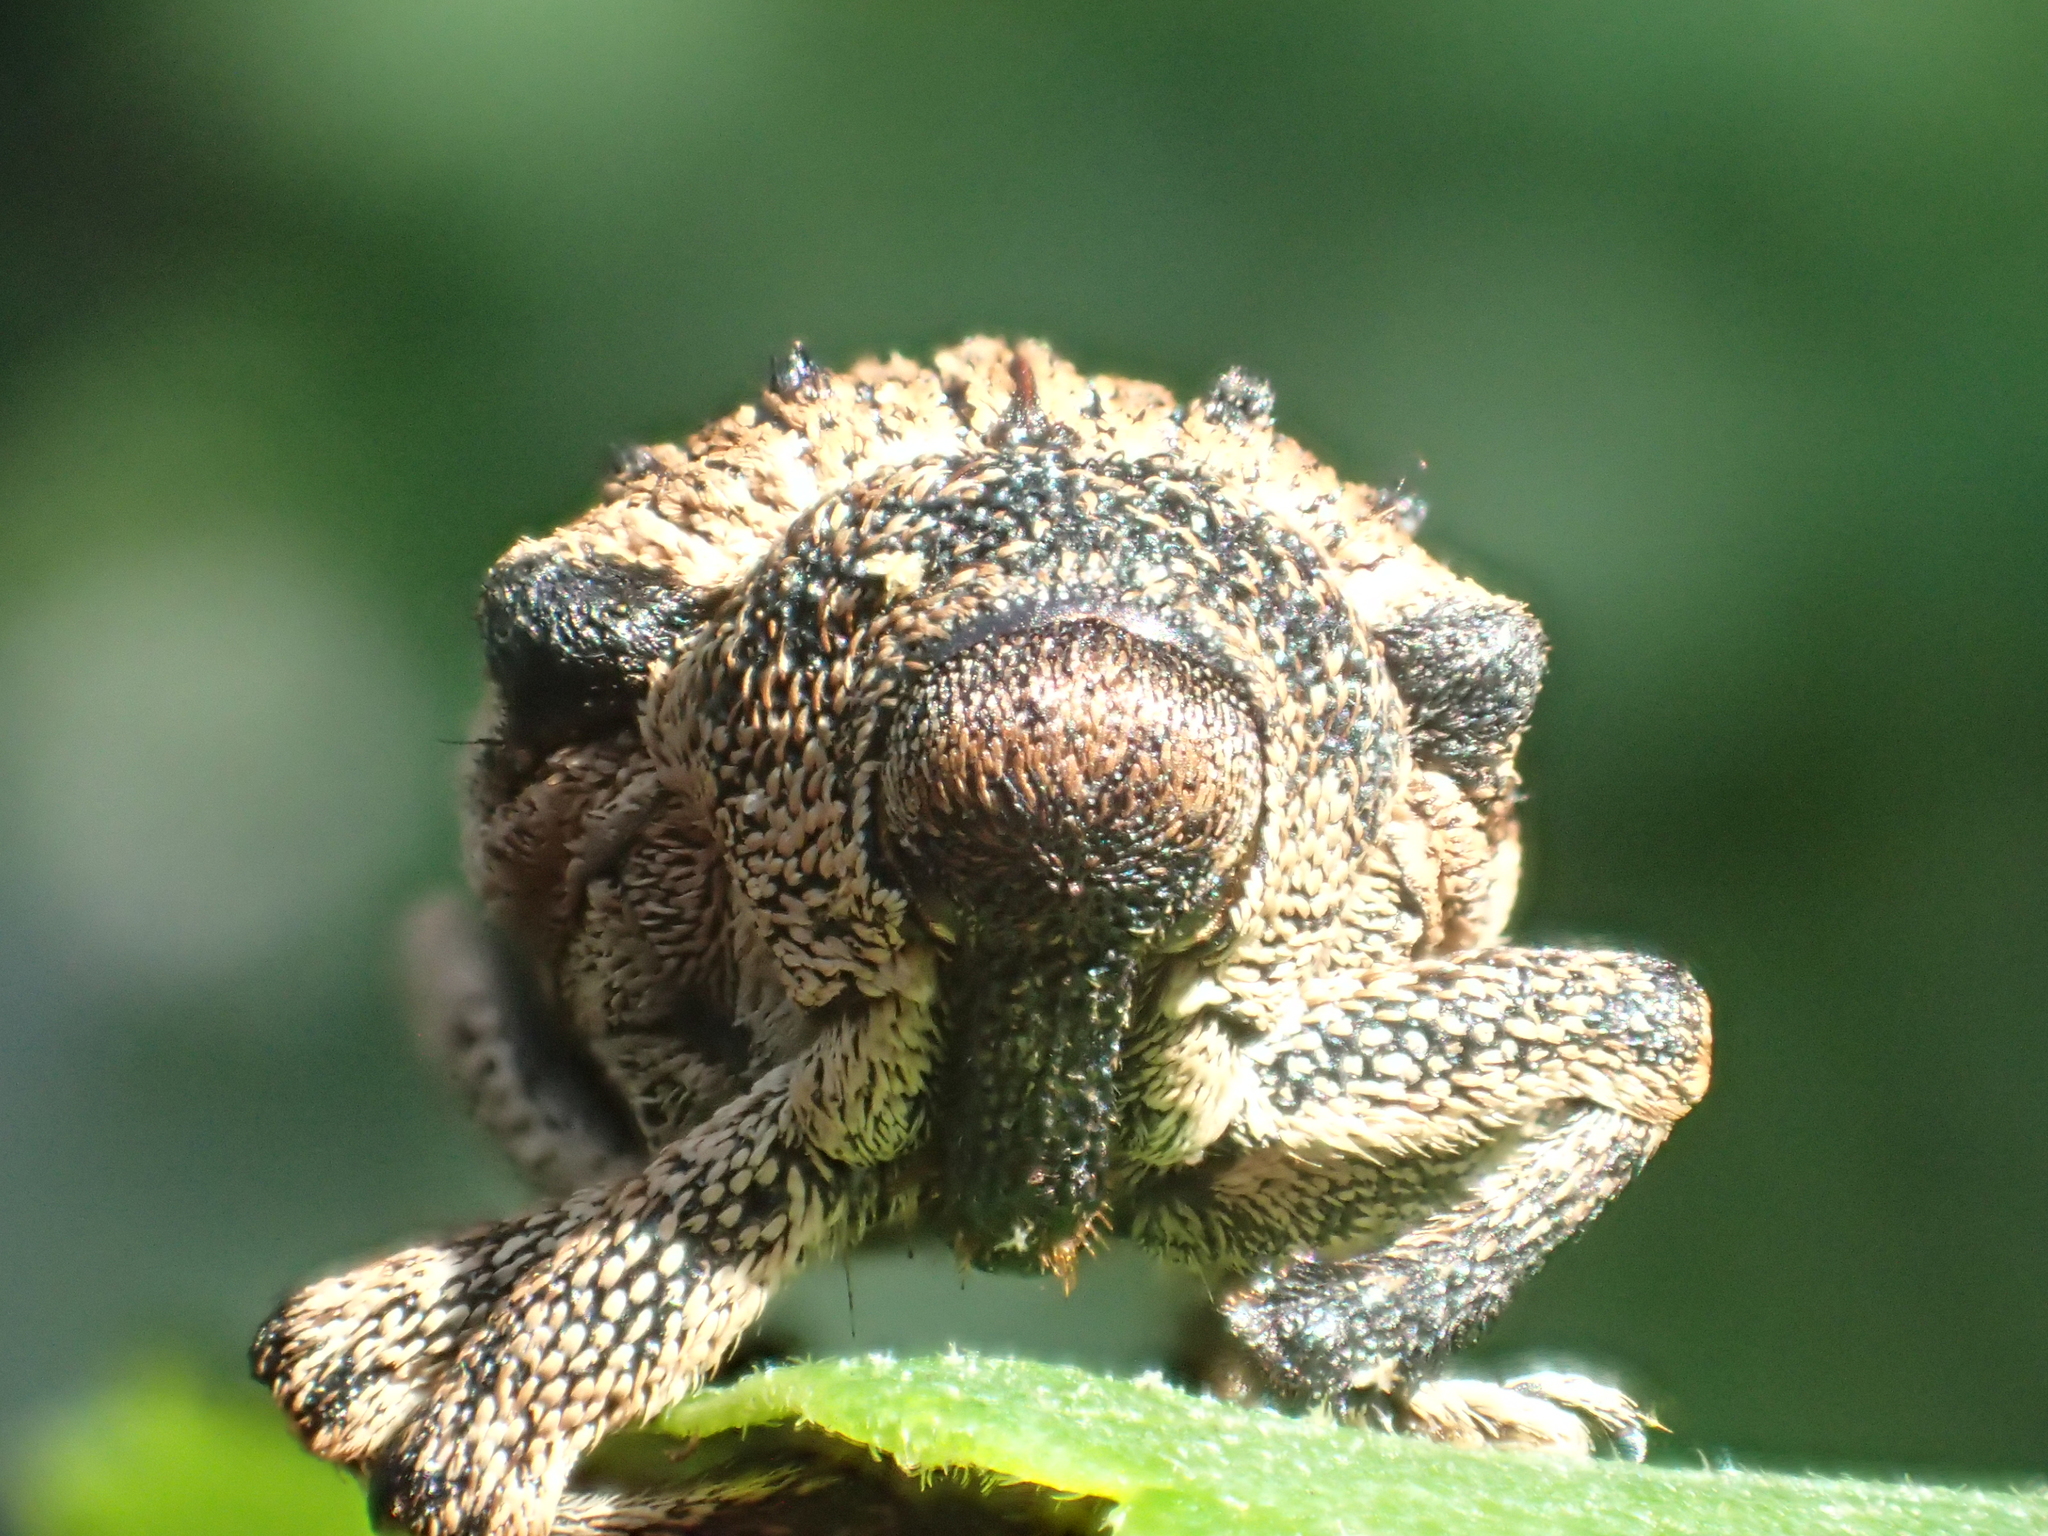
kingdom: Animalia
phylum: Arthropoda
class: Insecta
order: Coleoptera
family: Brachyceridae
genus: Desmidophorus
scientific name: Desmidophorus crassus
